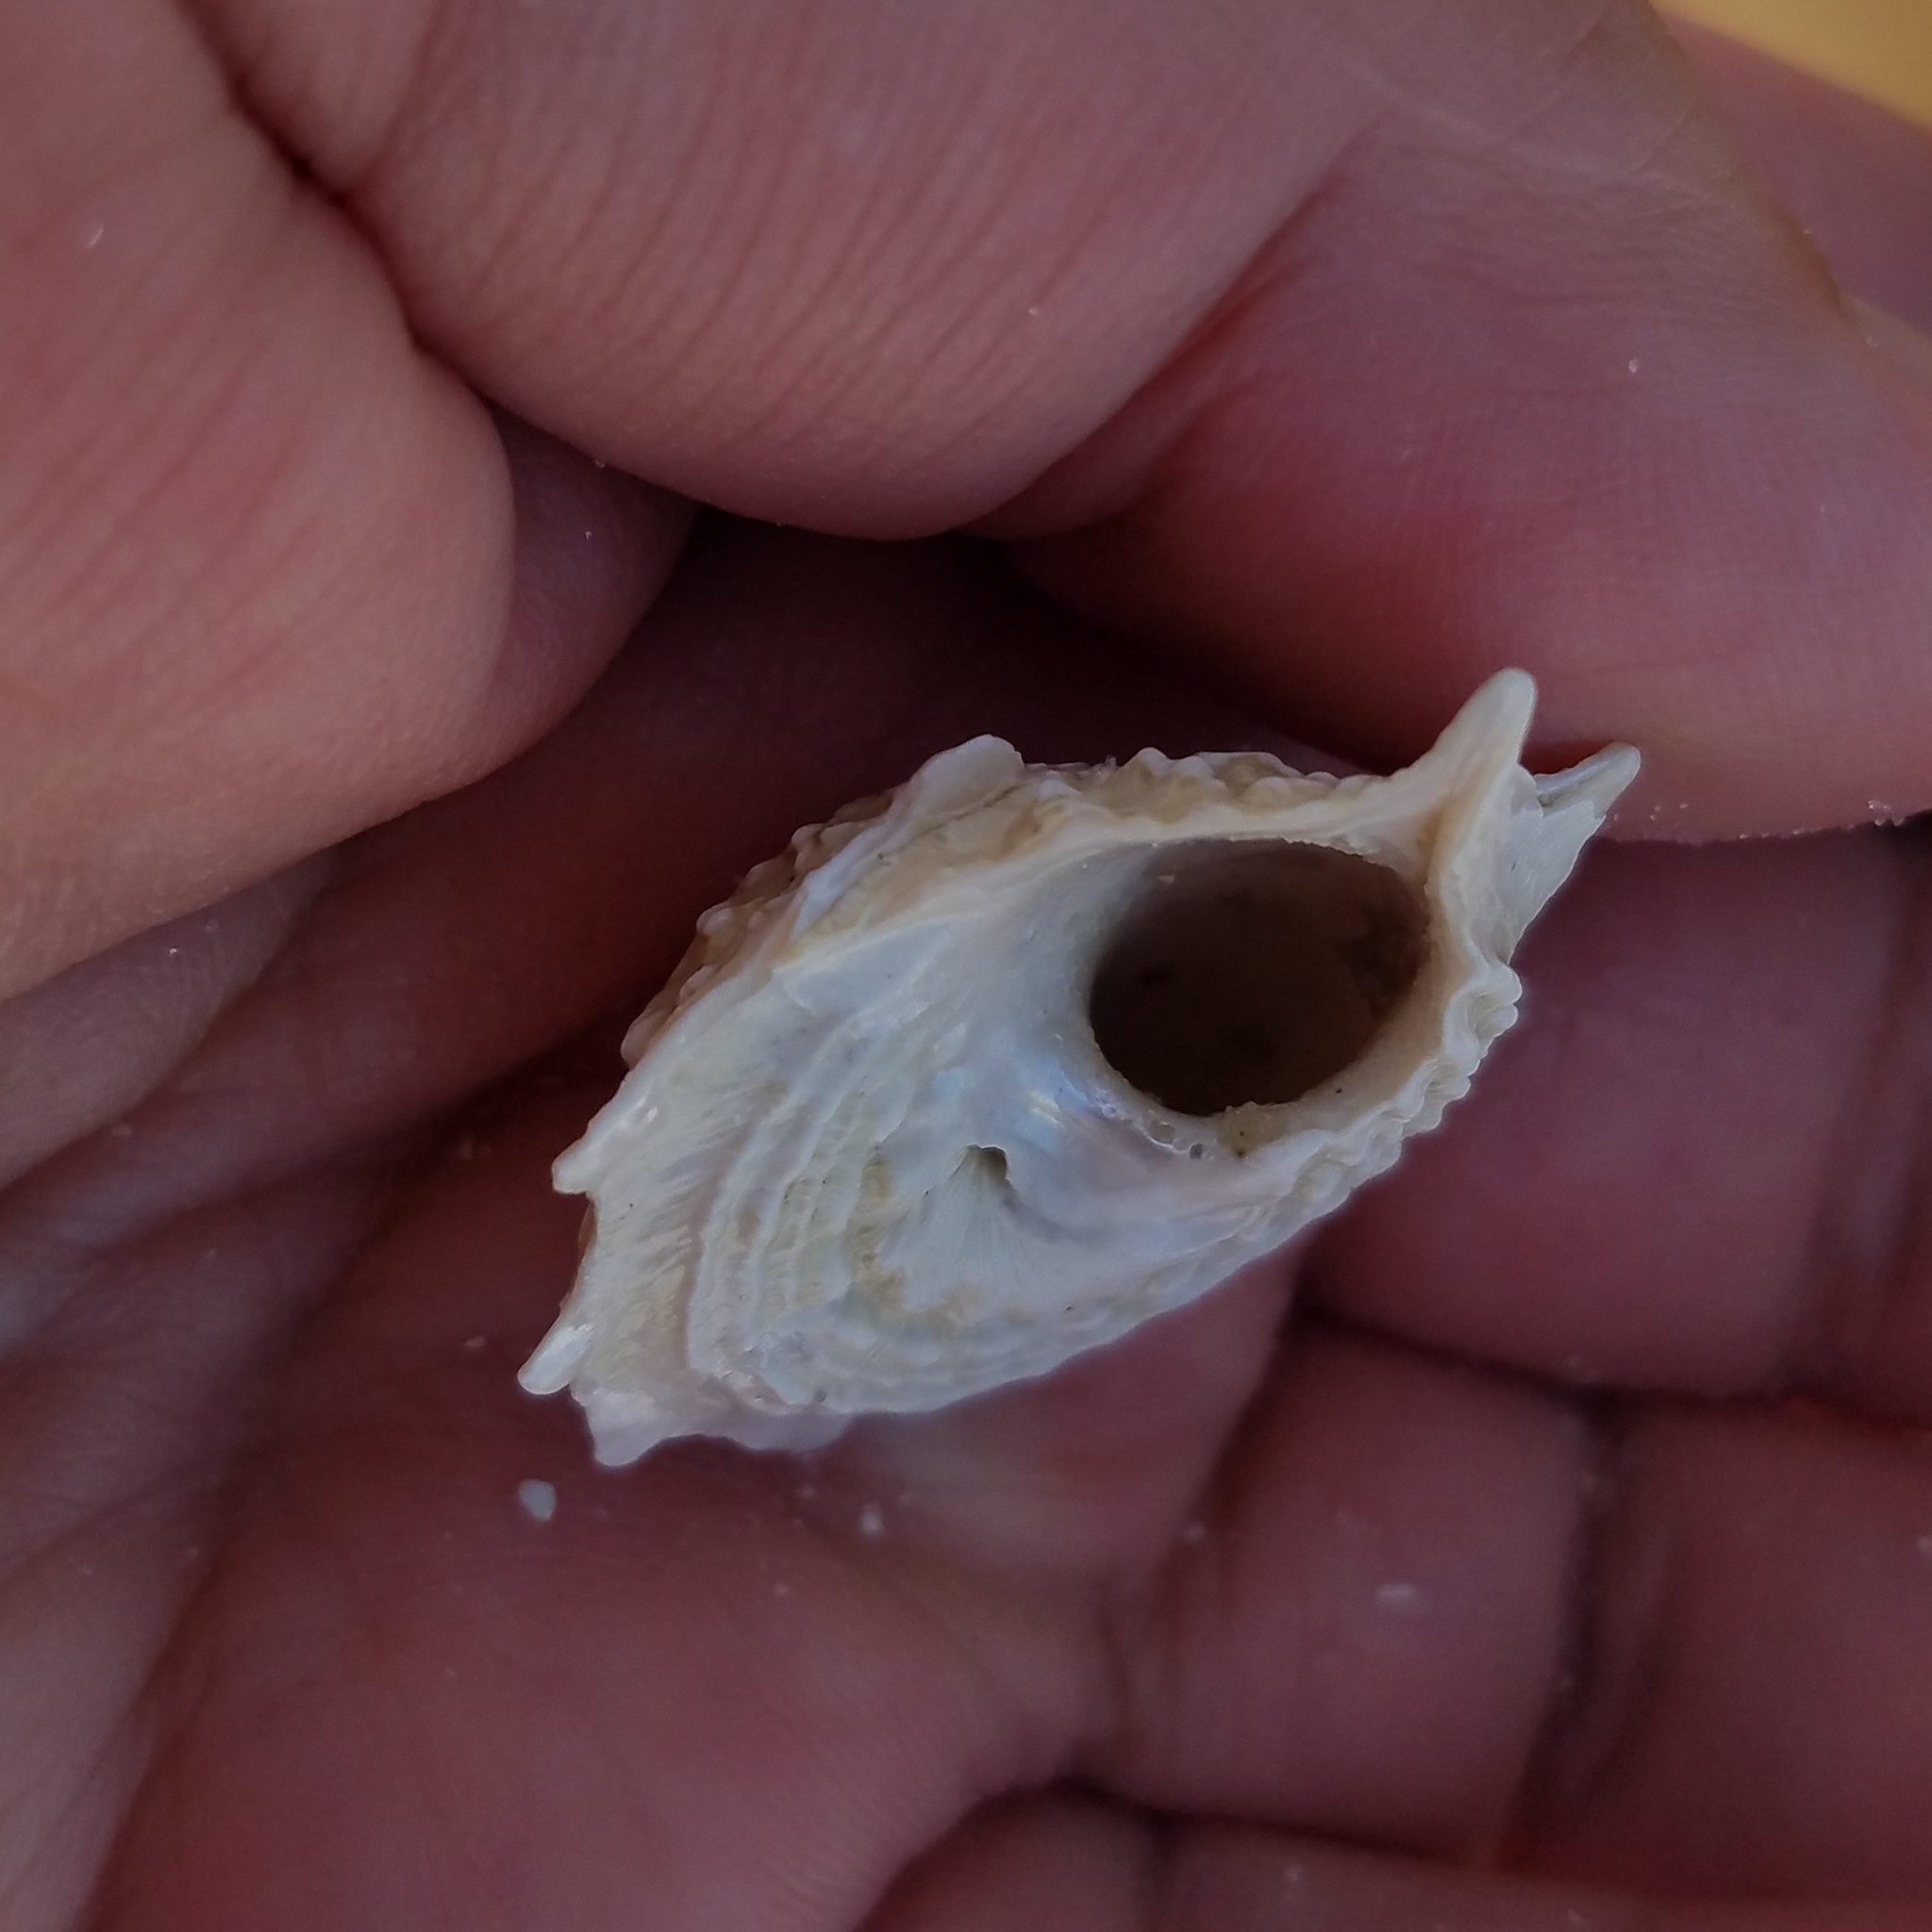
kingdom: Animalia
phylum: Mollusca
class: Gastropoda
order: Trochida
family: Turbinidae
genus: Lithopoma
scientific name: Lithopoma phoebium
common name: Long-spined starsnail
